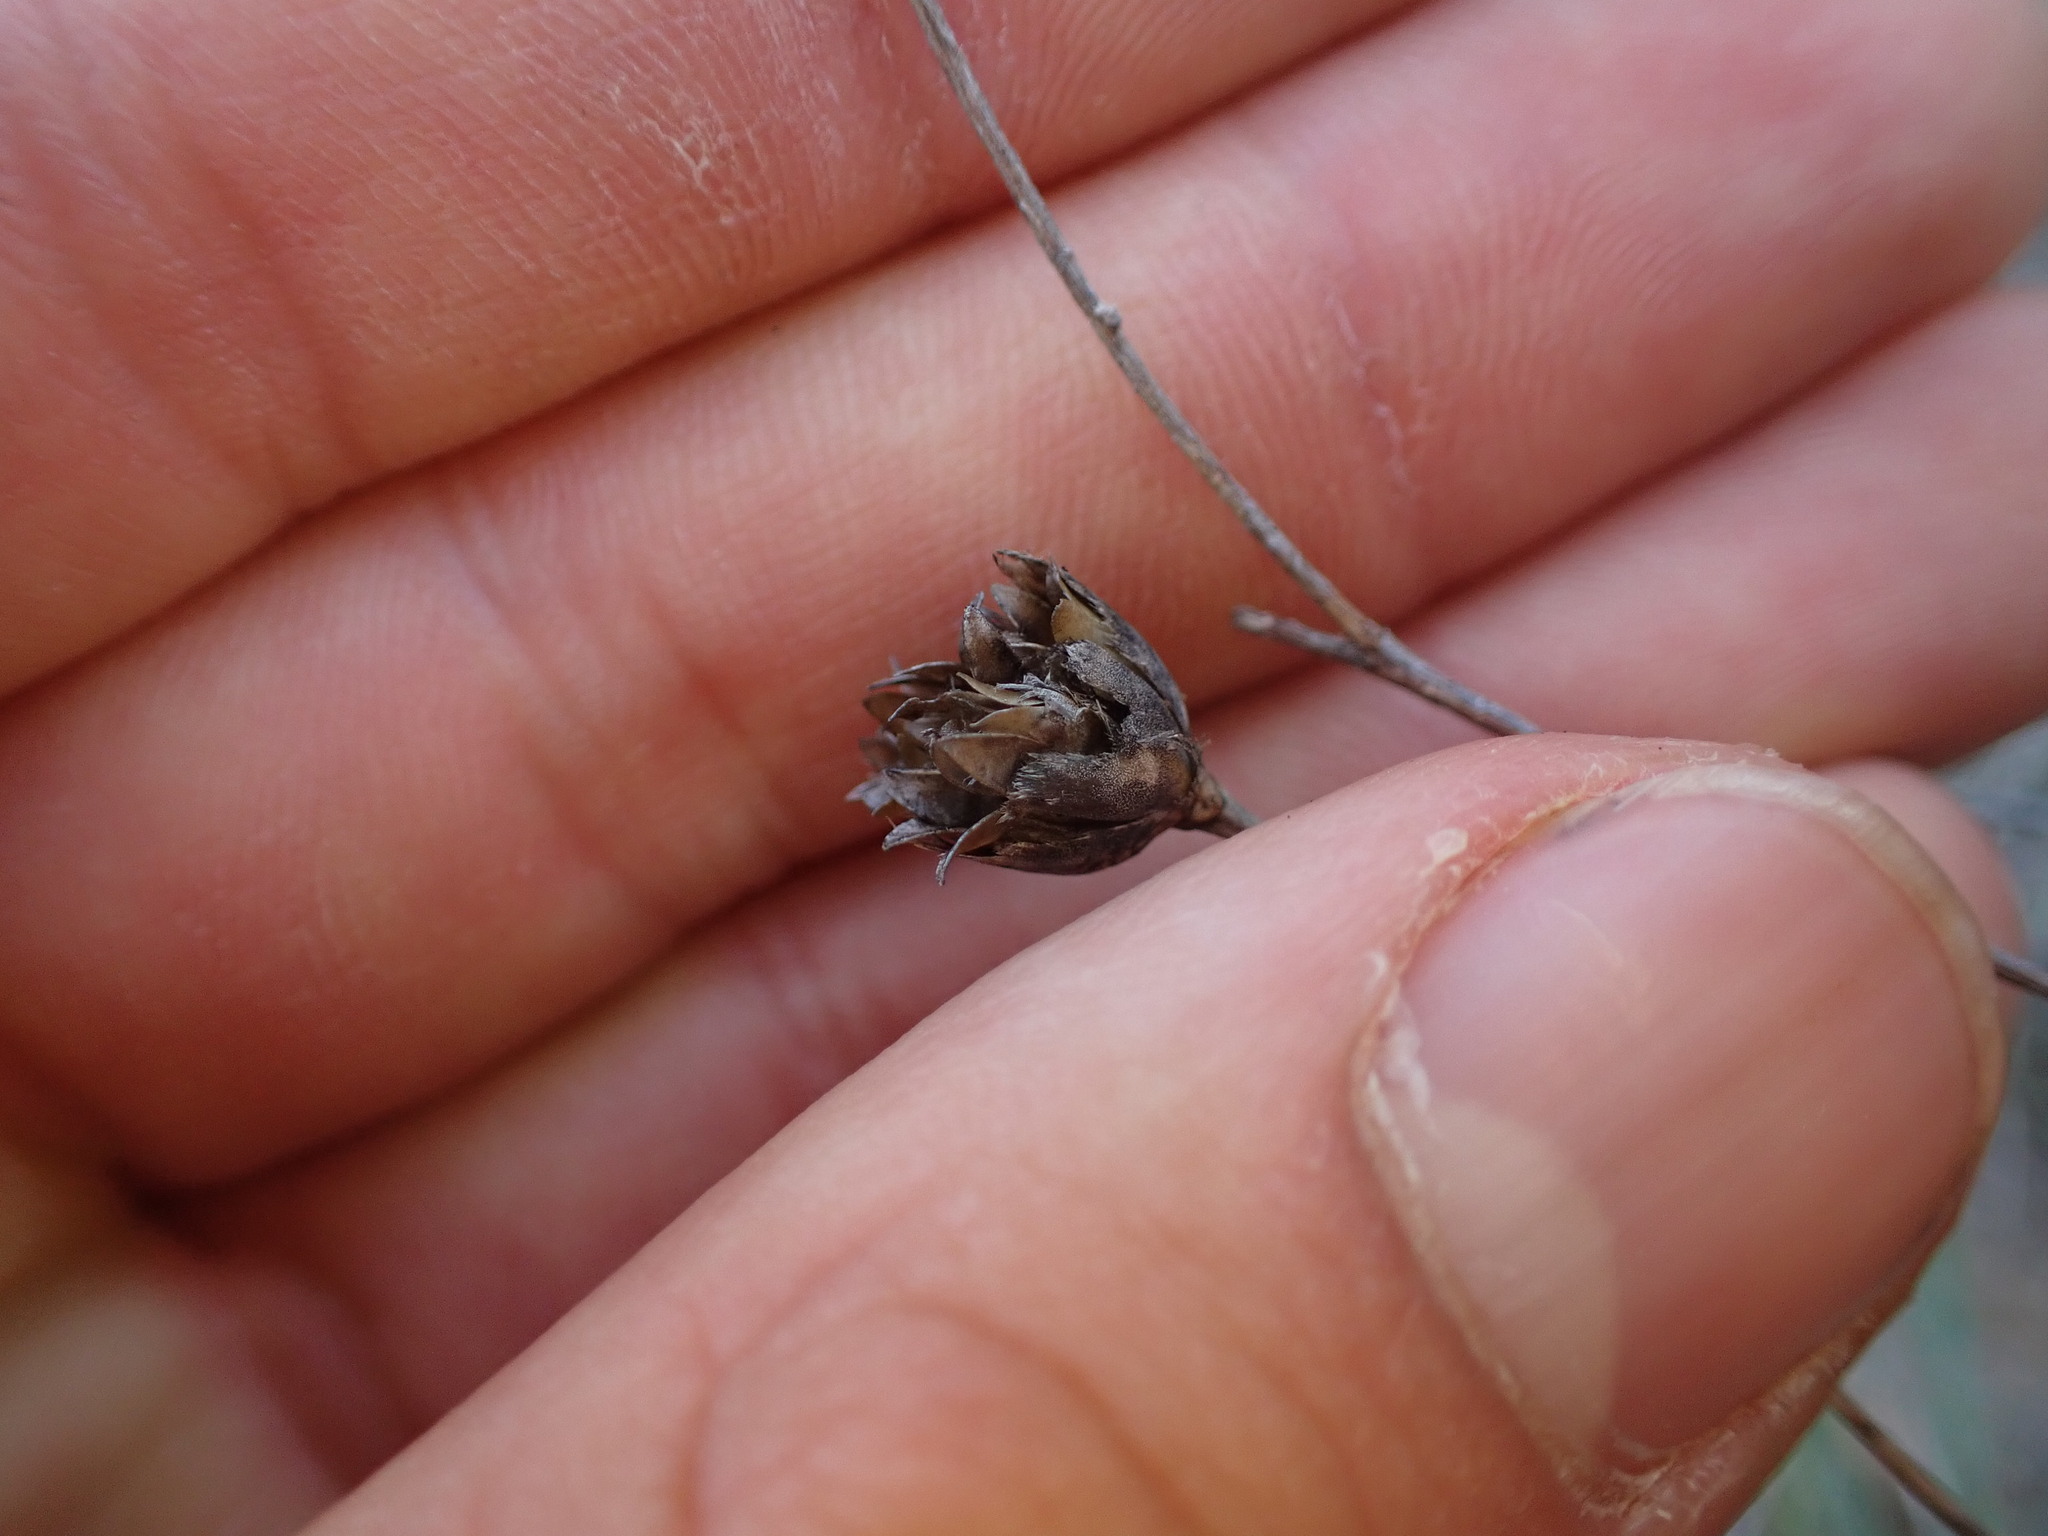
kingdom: Plantae
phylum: Tracheophyta
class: Magnoliopsida
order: Caryophyllales
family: Caryophyllaceae
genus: Petrorhagia
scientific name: Petrorhagia prolifera
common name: Proliferous pink
